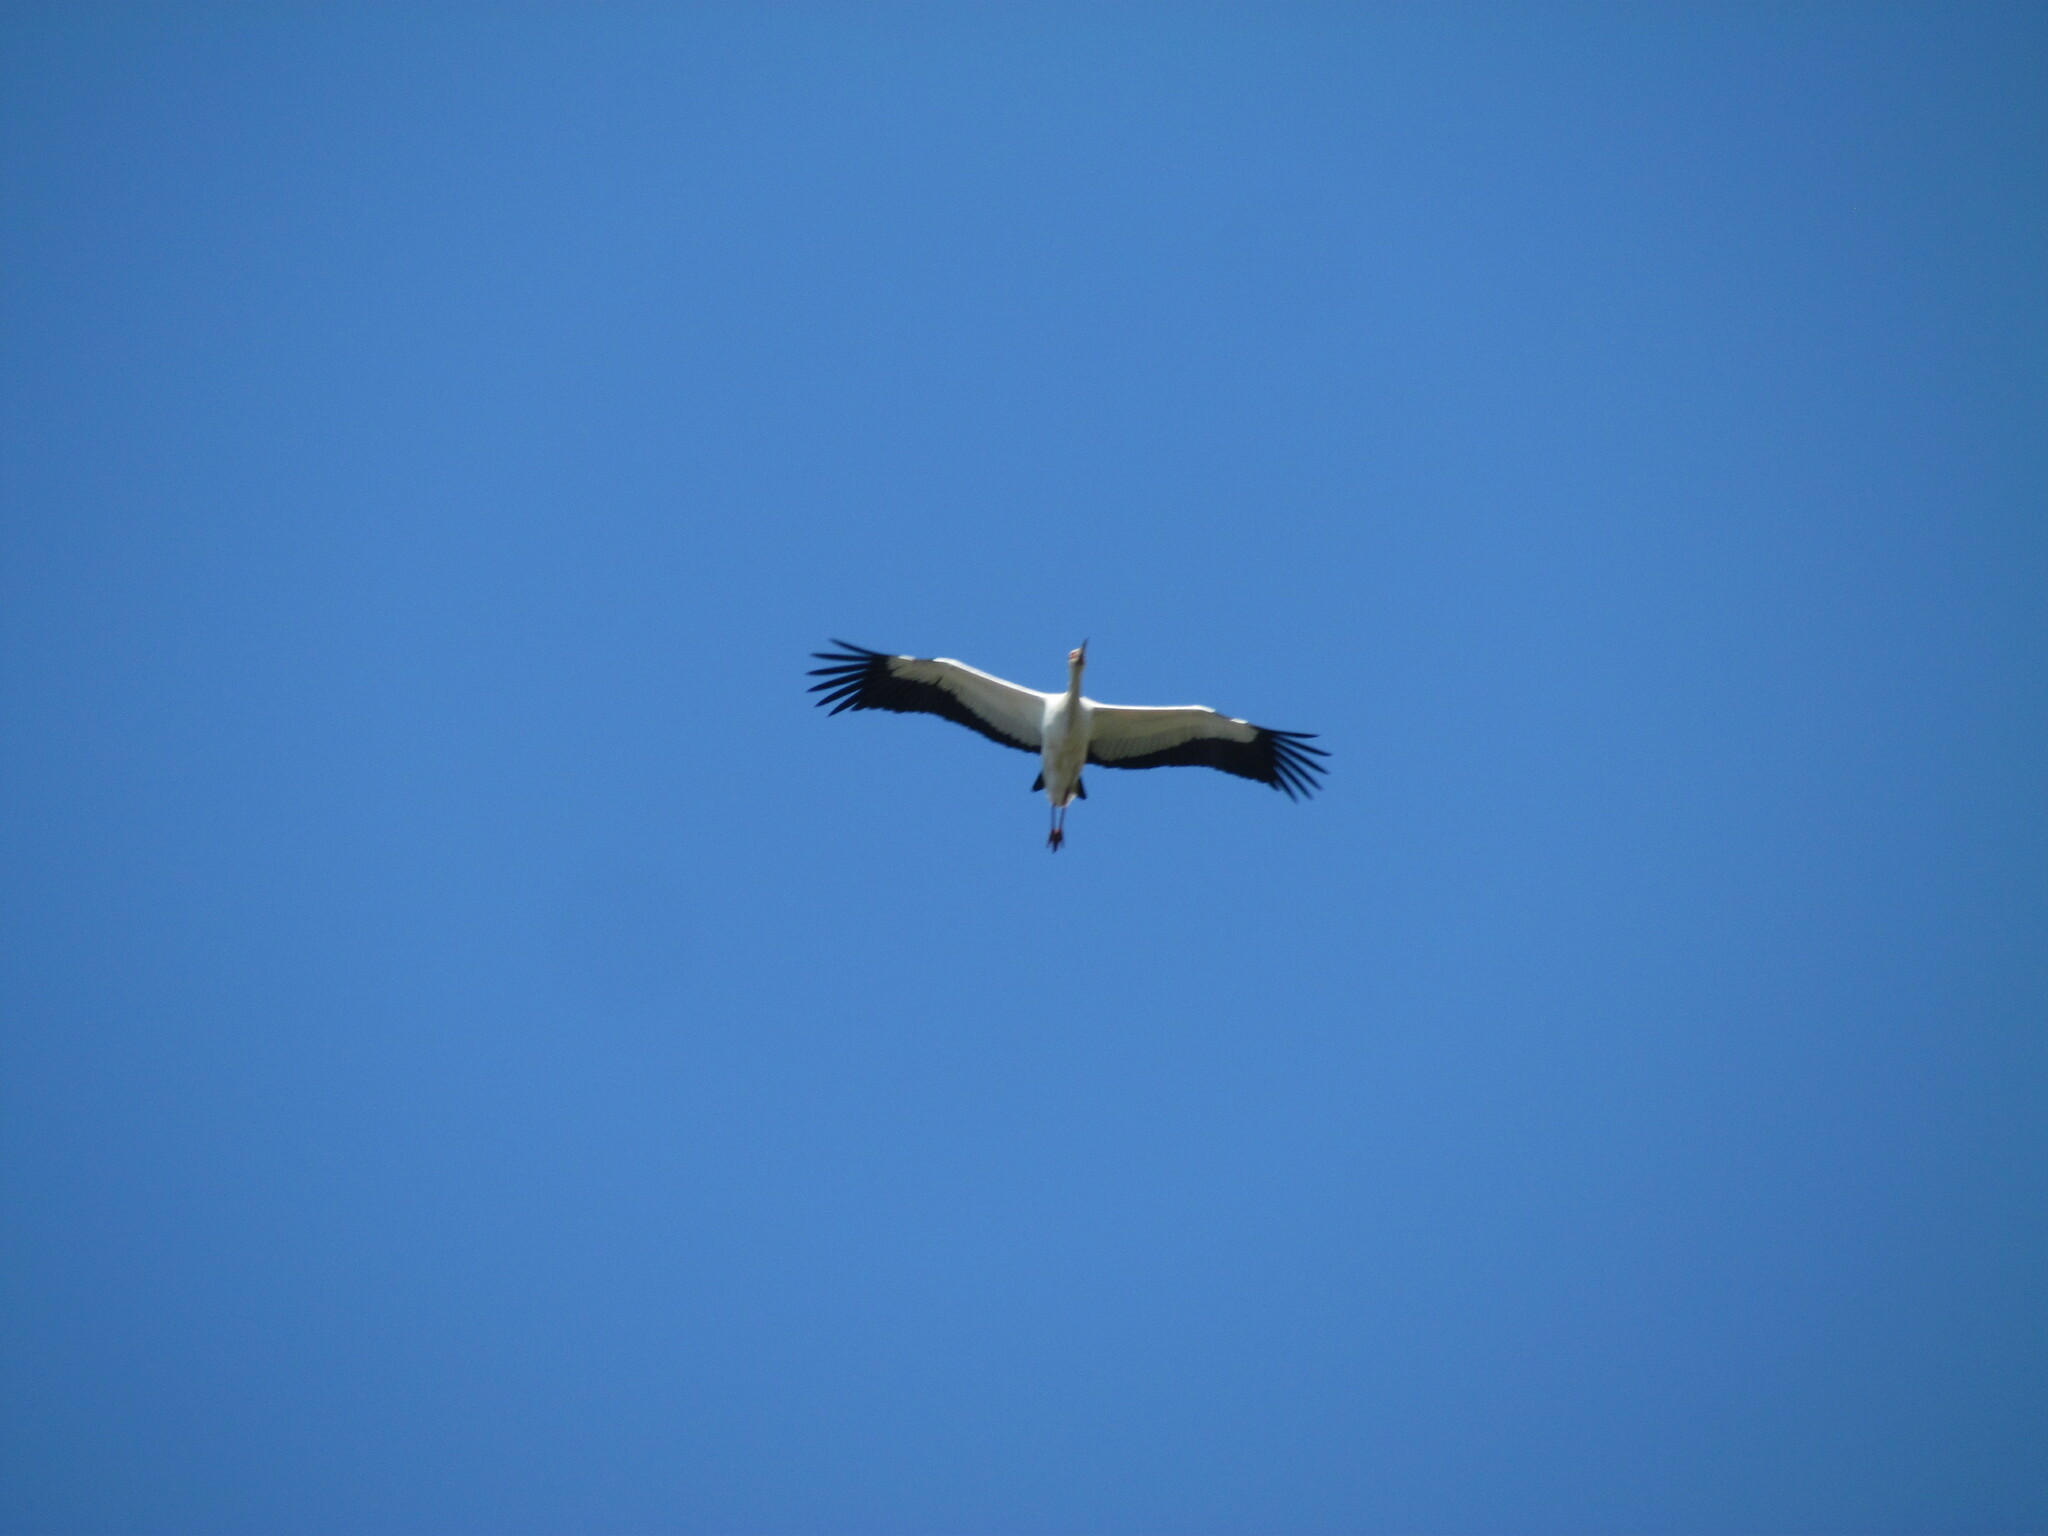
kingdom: Animalia
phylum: Chordata
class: Aves
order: Ciconiiformes
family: Ciconiidae
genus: Ciconia
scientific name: Ciconia maguari
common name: Maguari stork
